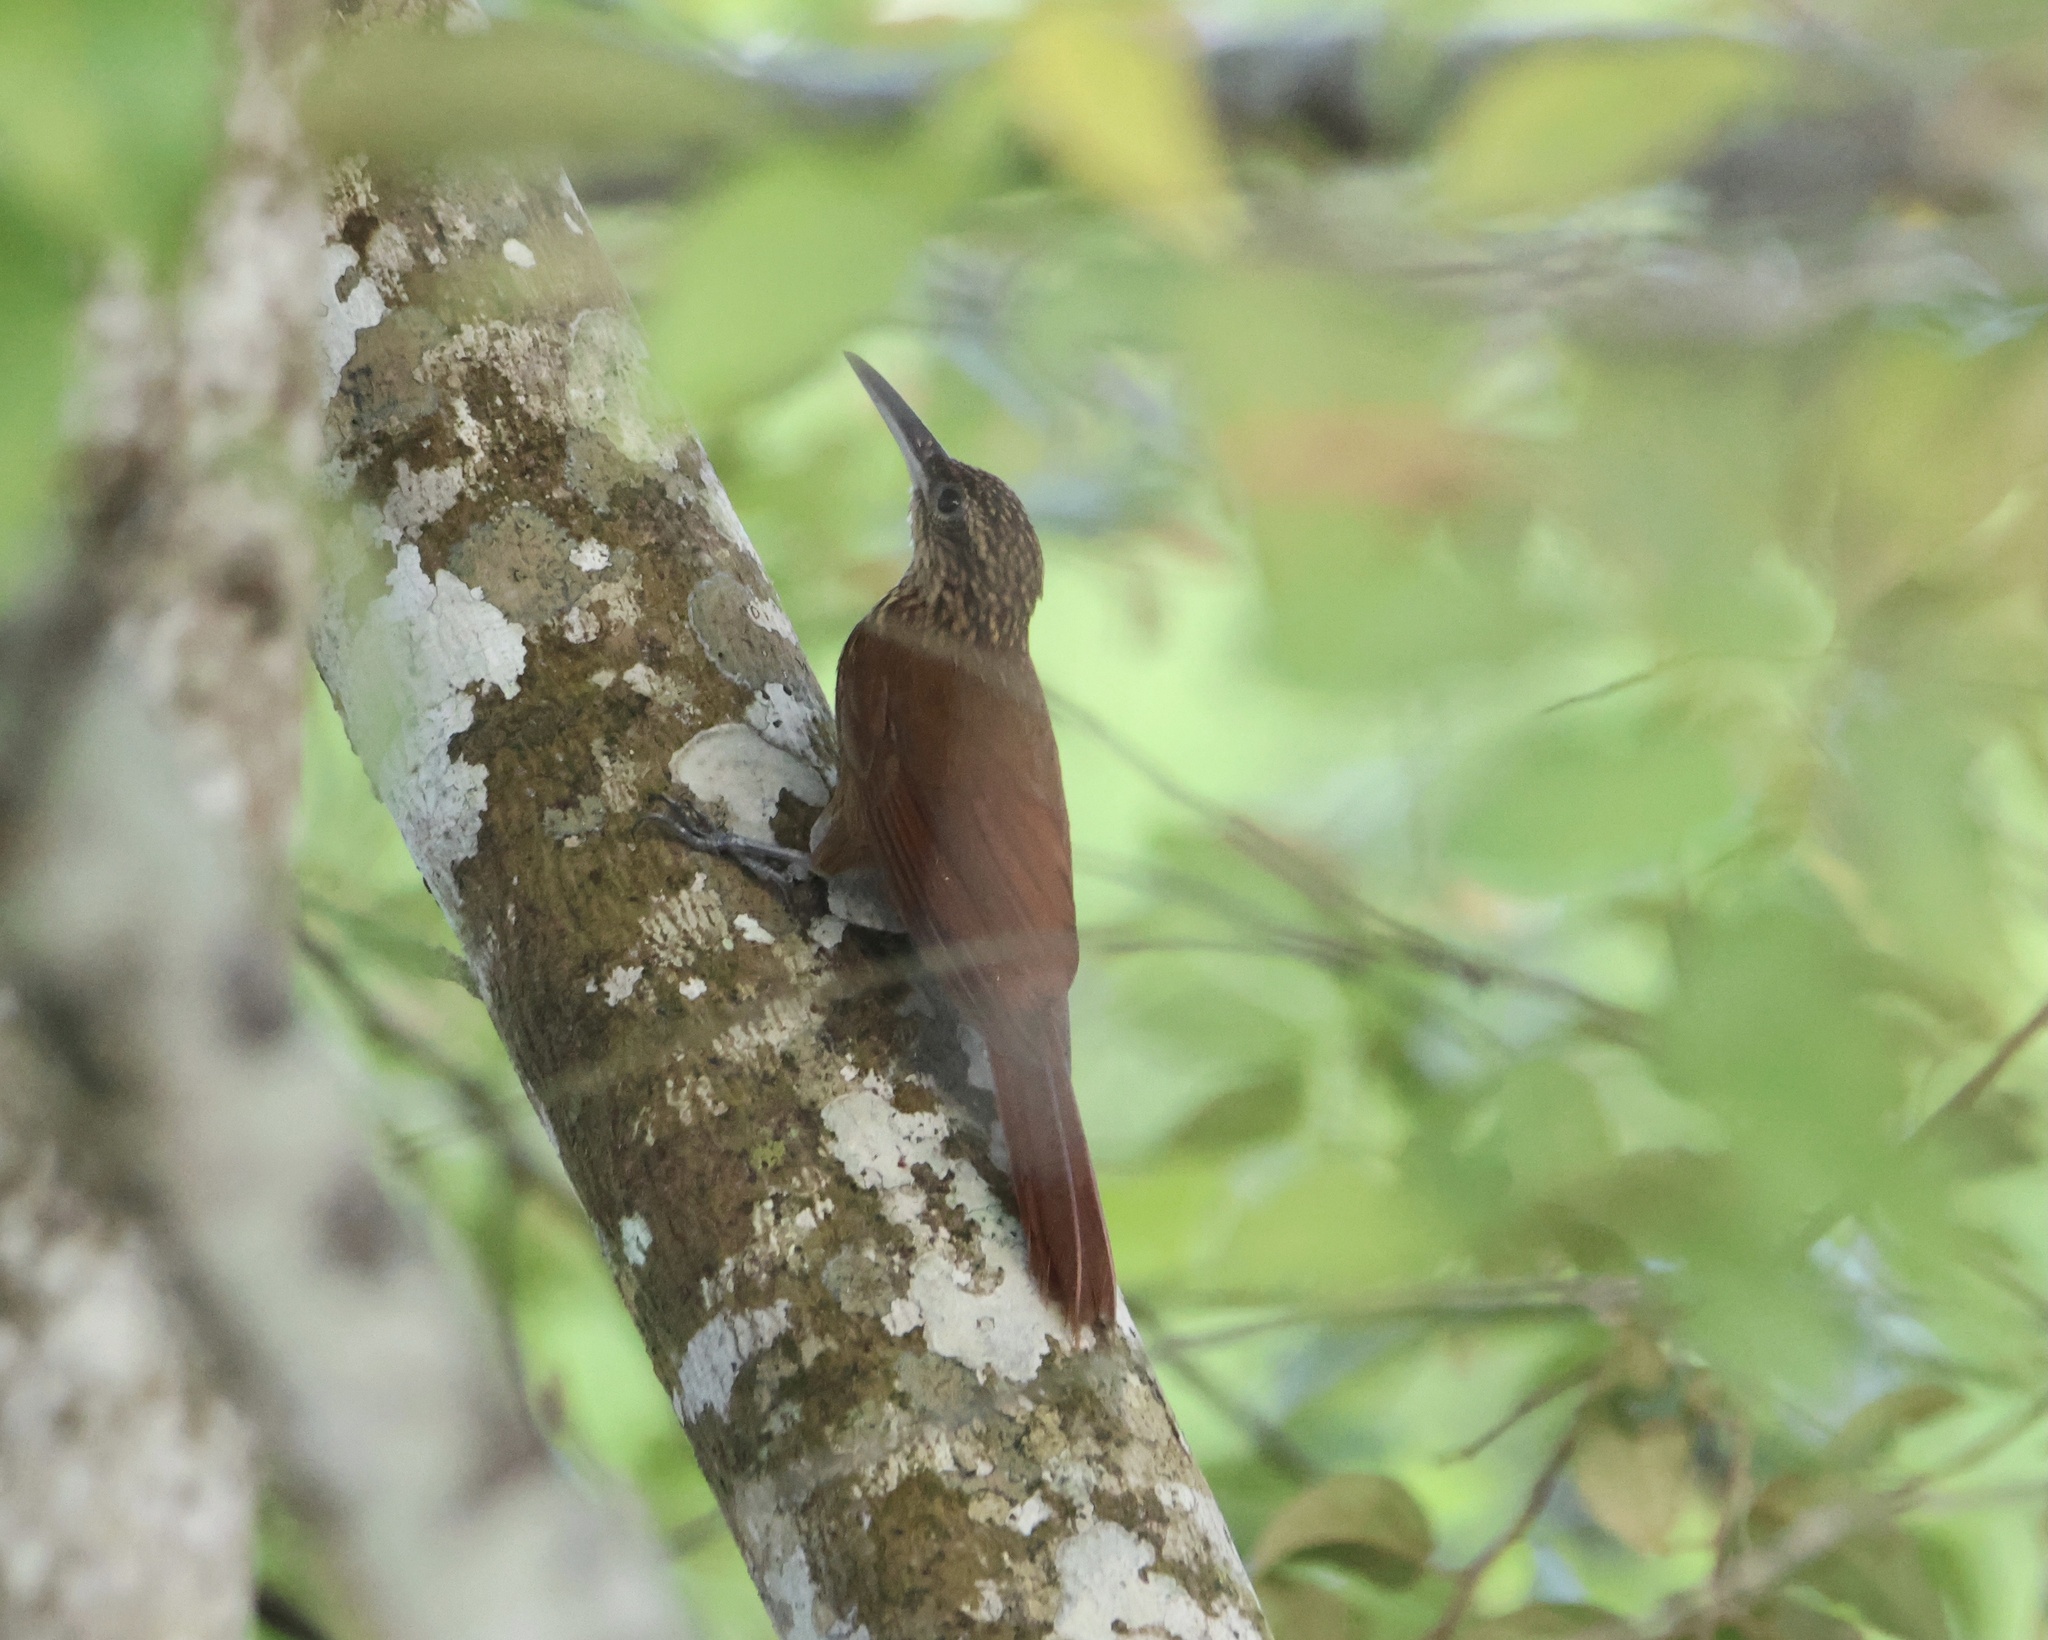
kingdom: Animalia
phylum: Chordata
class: Aves
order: Passeriformes
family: Furnariidae
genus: Xiphorhynchus
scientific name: Xiphorhynchus susurrans
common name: Cocoa woodcreeper
